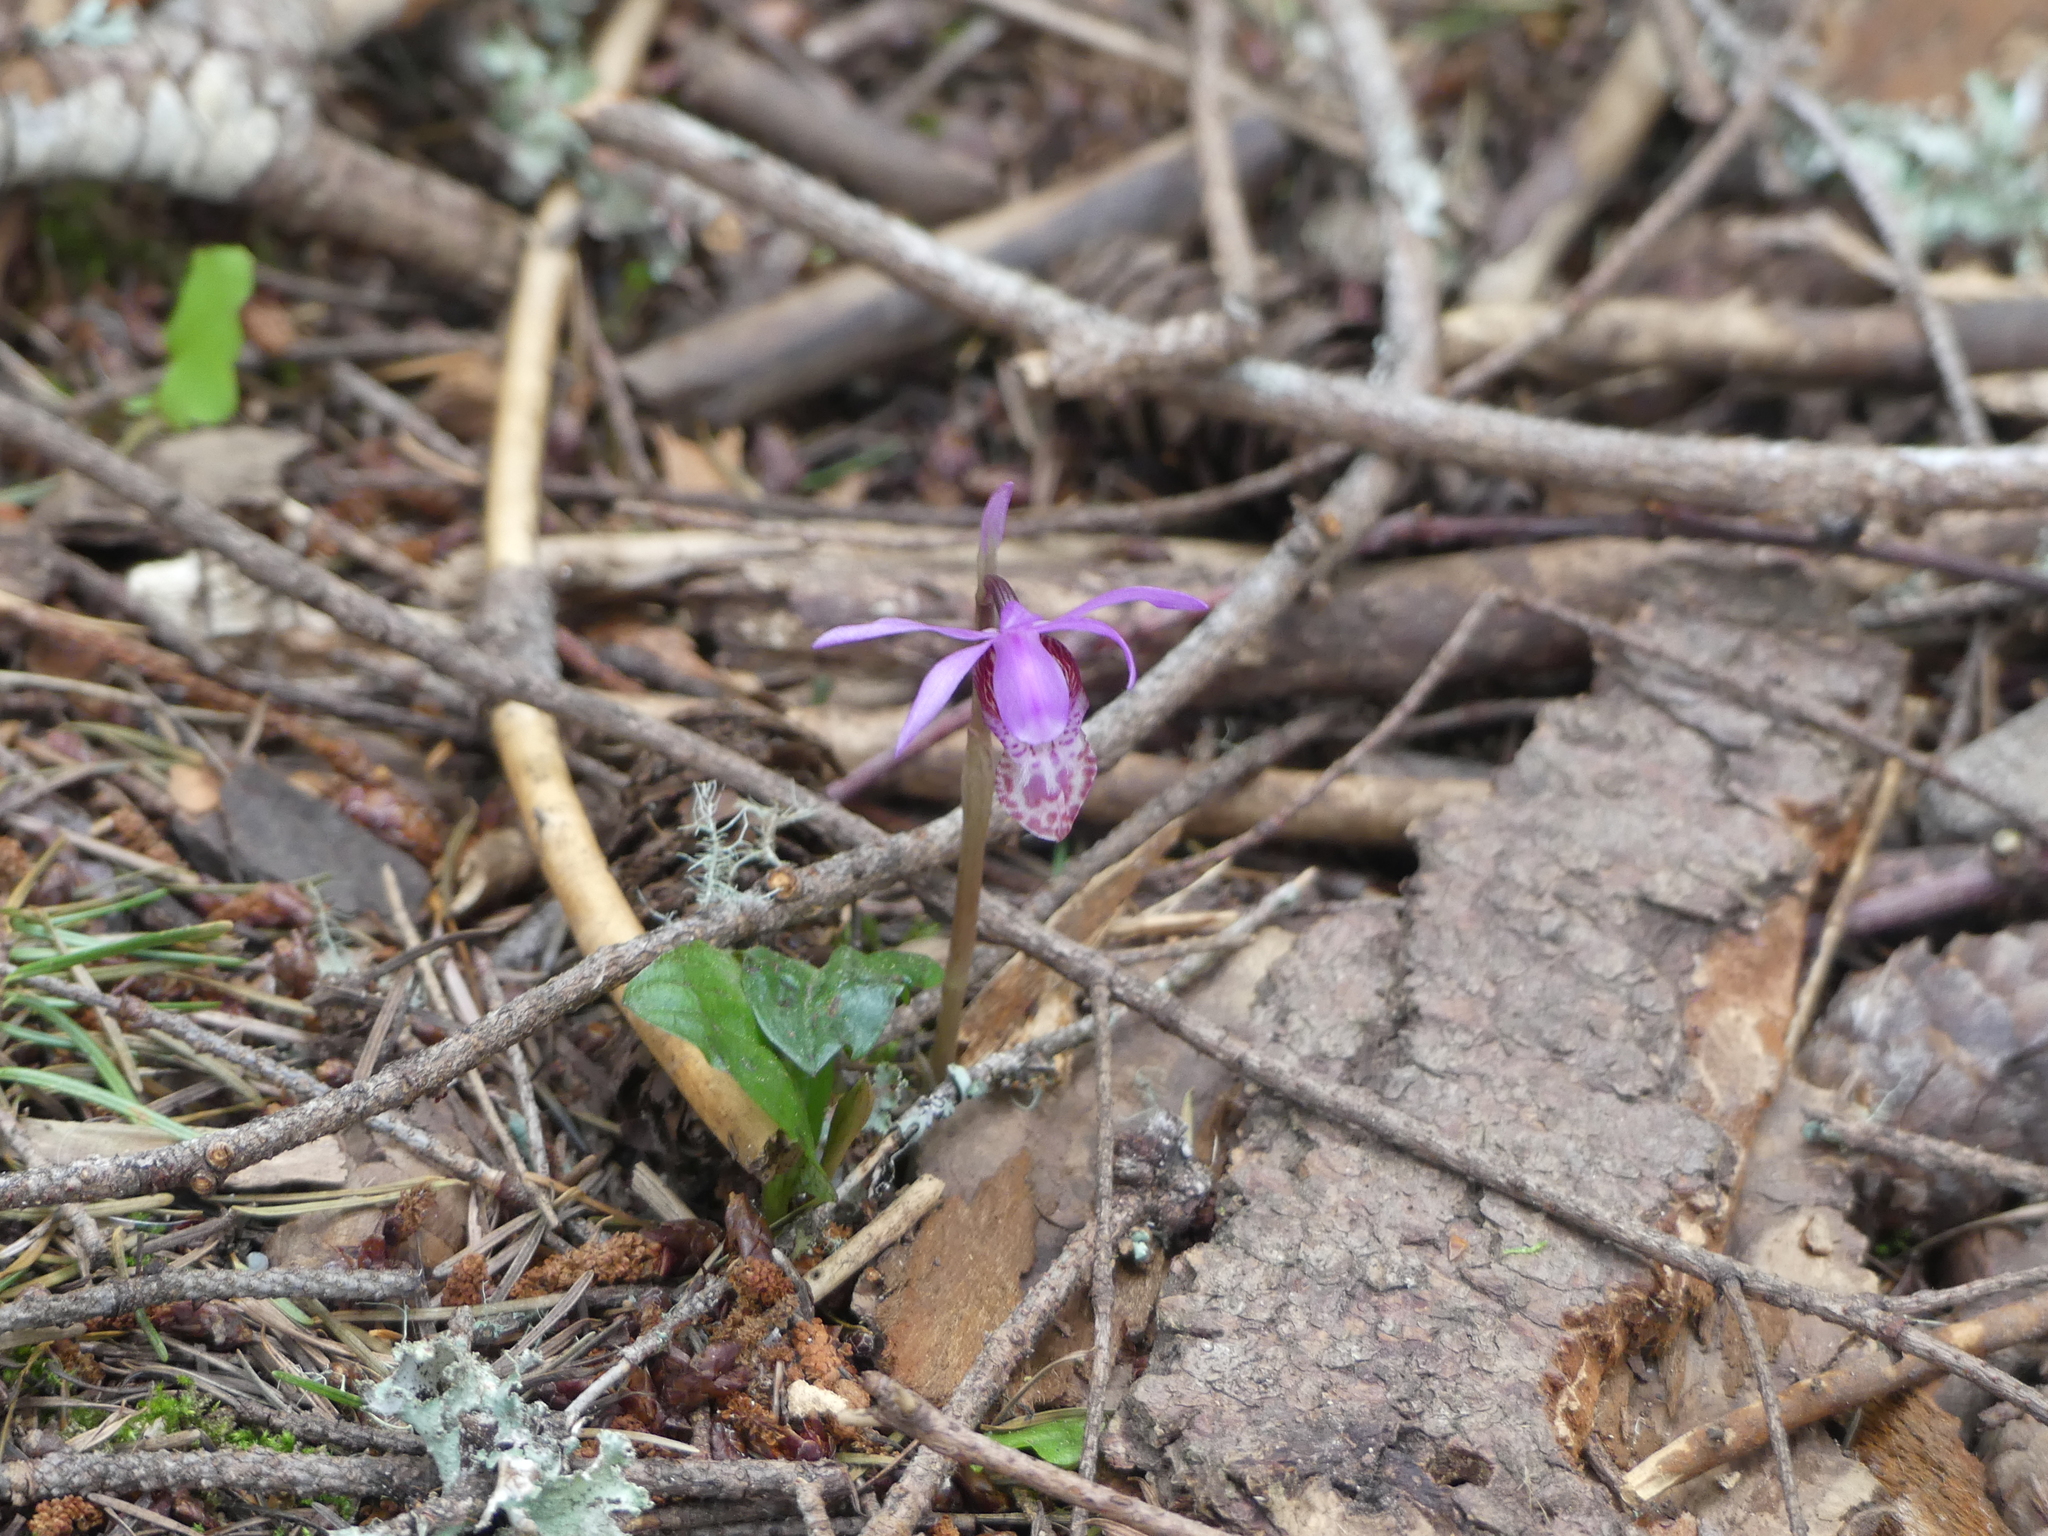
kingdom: Plantae
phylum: Tracheophyta
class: Liliopsida
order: Asparagales
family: Orchidaceae
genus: Calypso
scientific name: Calypso bulbosa
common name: Calypso
